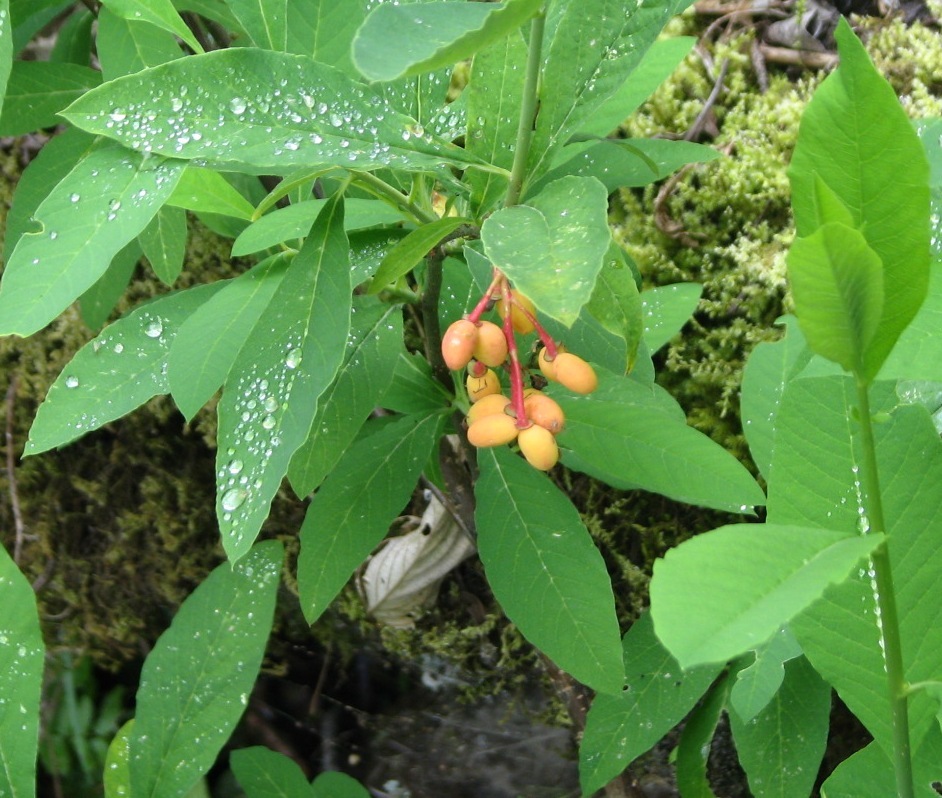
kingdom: Plantae
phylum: Tracheophyta
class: Magnoliopsida
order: Rosales
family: Rosaceae
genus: Oemleria
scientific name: Oemleria cerasiformis
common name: Osoberry
